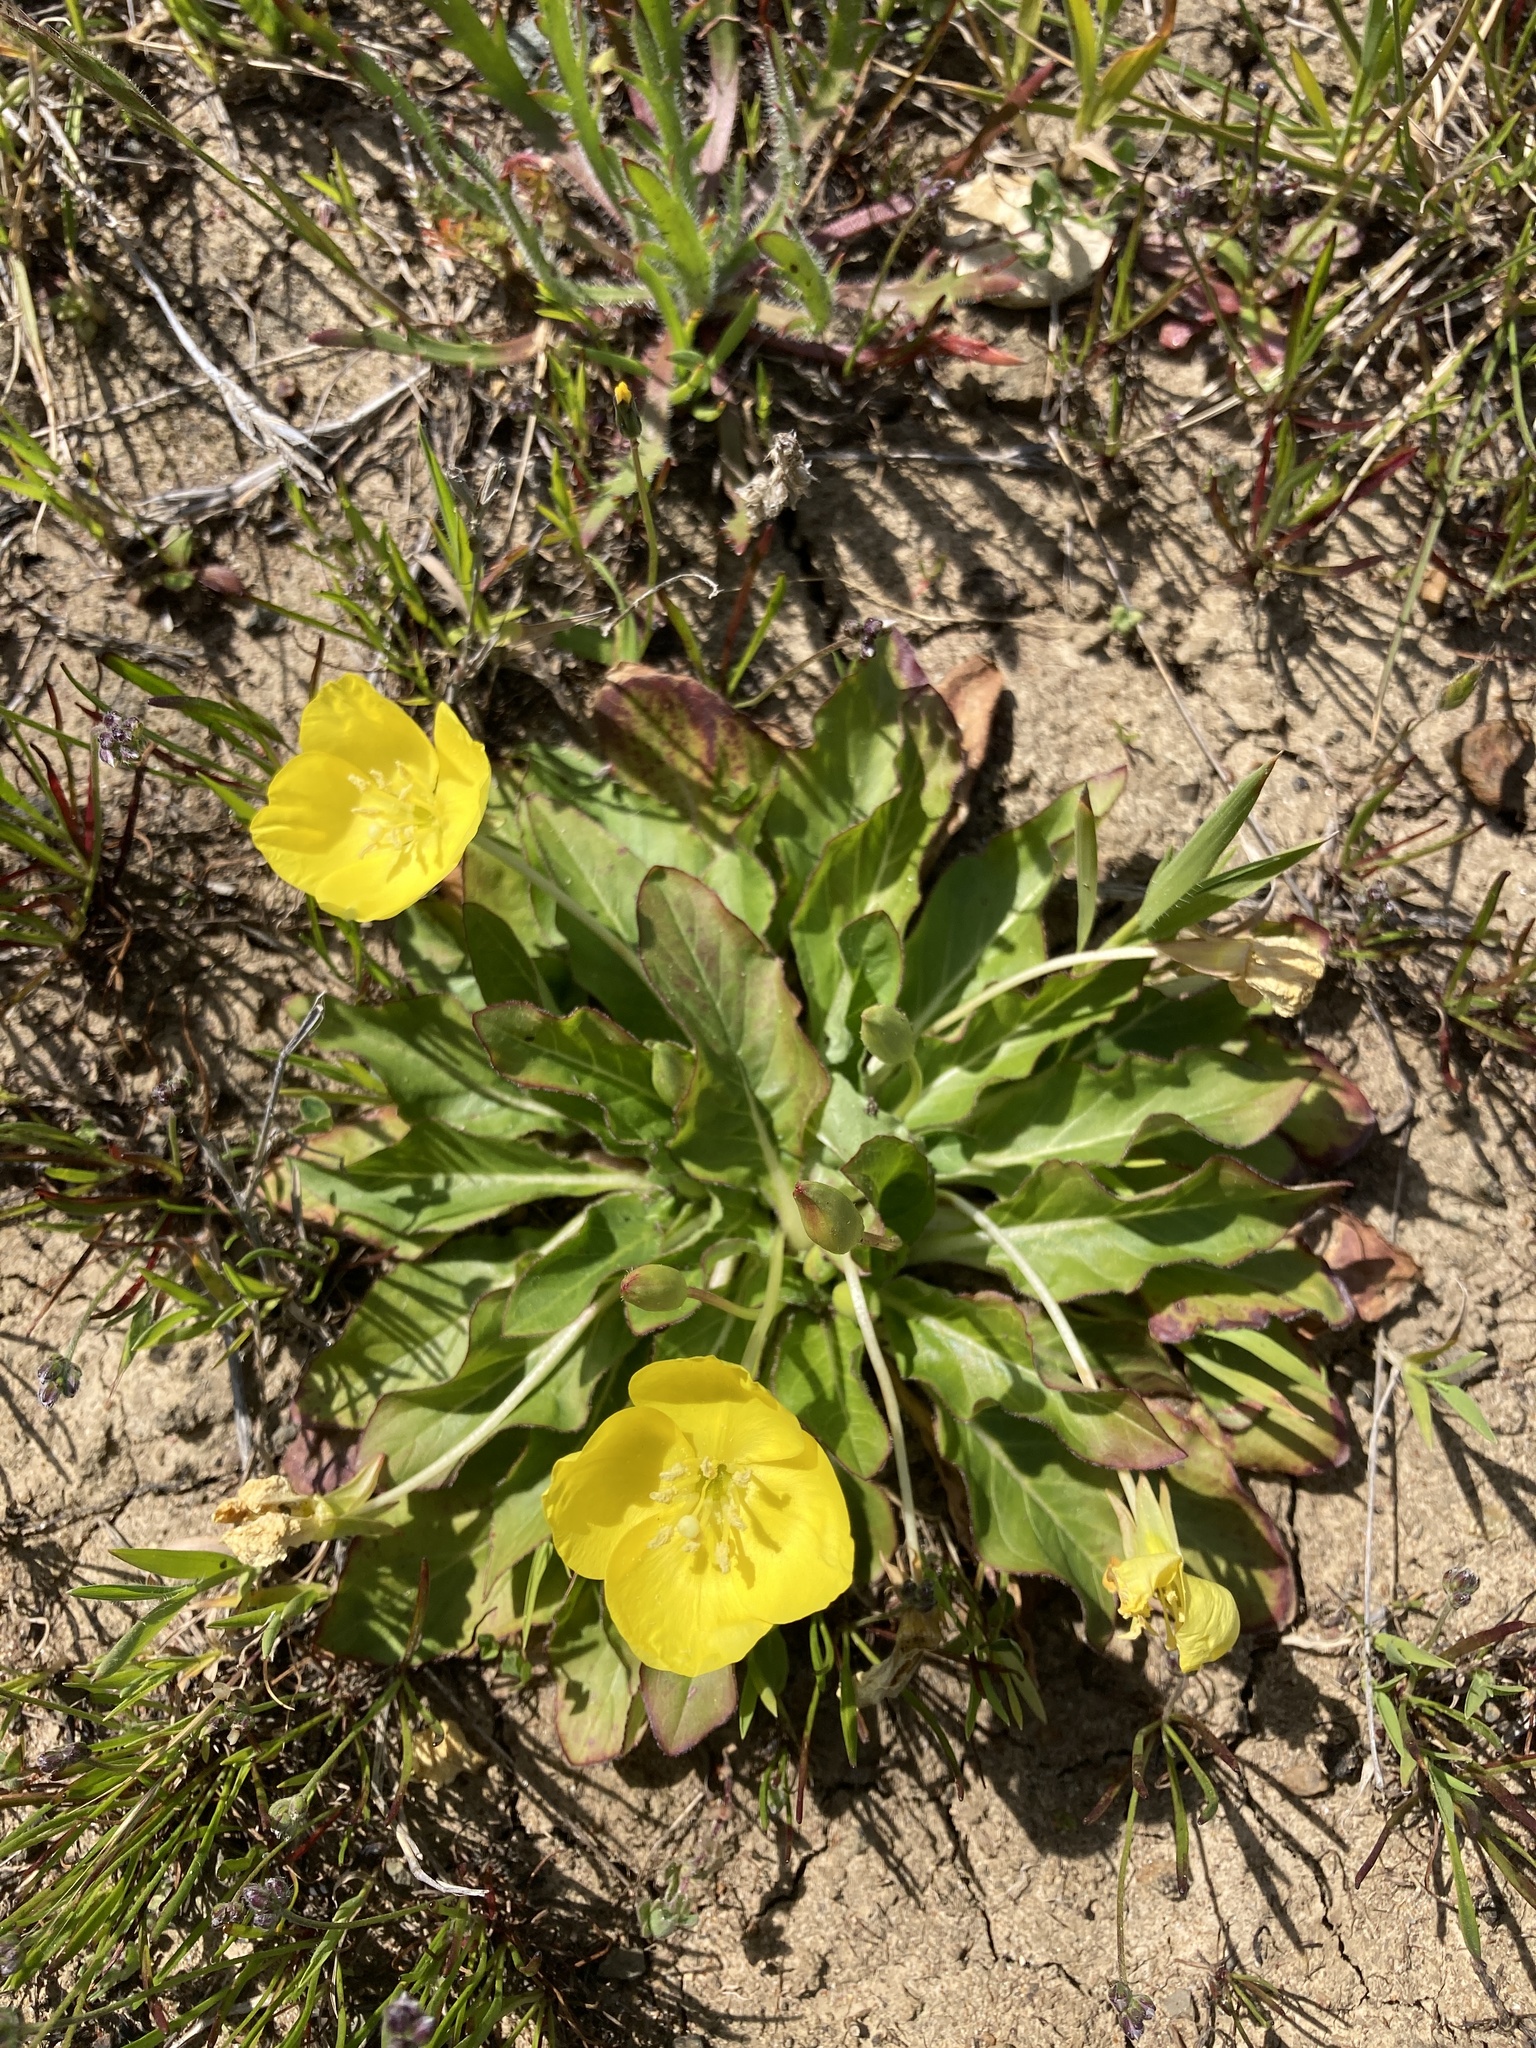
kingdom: Plantae
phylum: Tracheophyta
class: Magnoliopsida
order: Myrtales
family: Onagraceae
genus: Taraxia
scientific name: Taraxia ovata
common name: Goldeneggs
